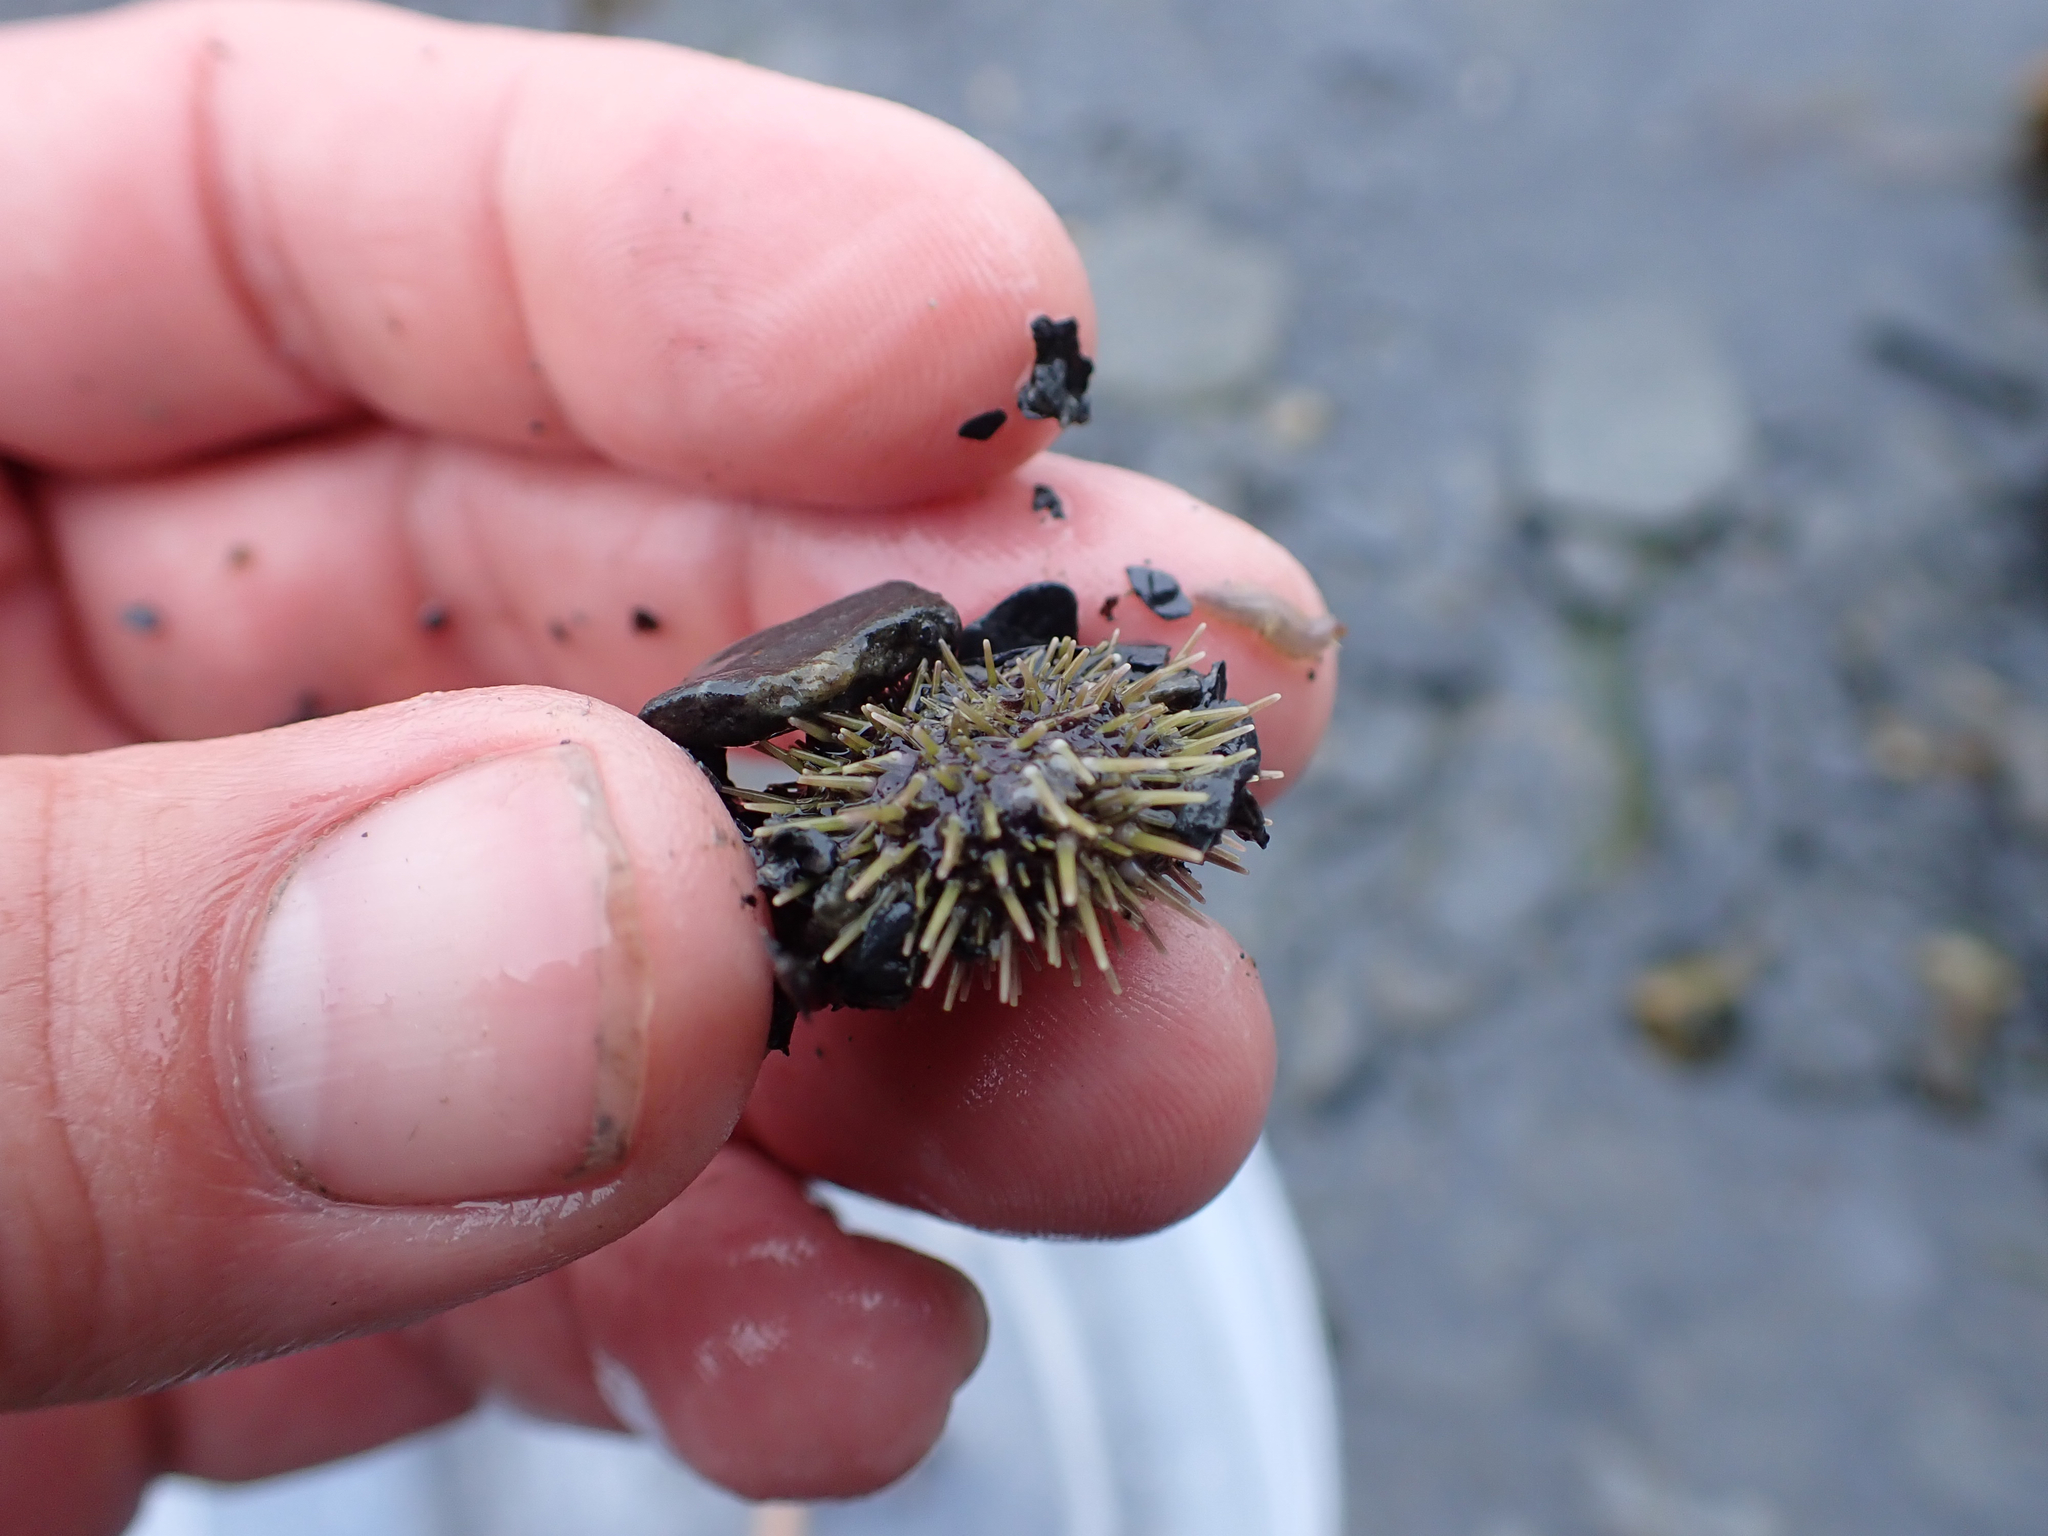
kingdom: Animalia
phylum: Echinodermata
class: Echinoidea
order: Camarodonta
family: Strongylocentrotidae
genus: Strongylocentrotus
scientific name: Strongylocentrotus droebachiensis
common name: Northern sea urchin
